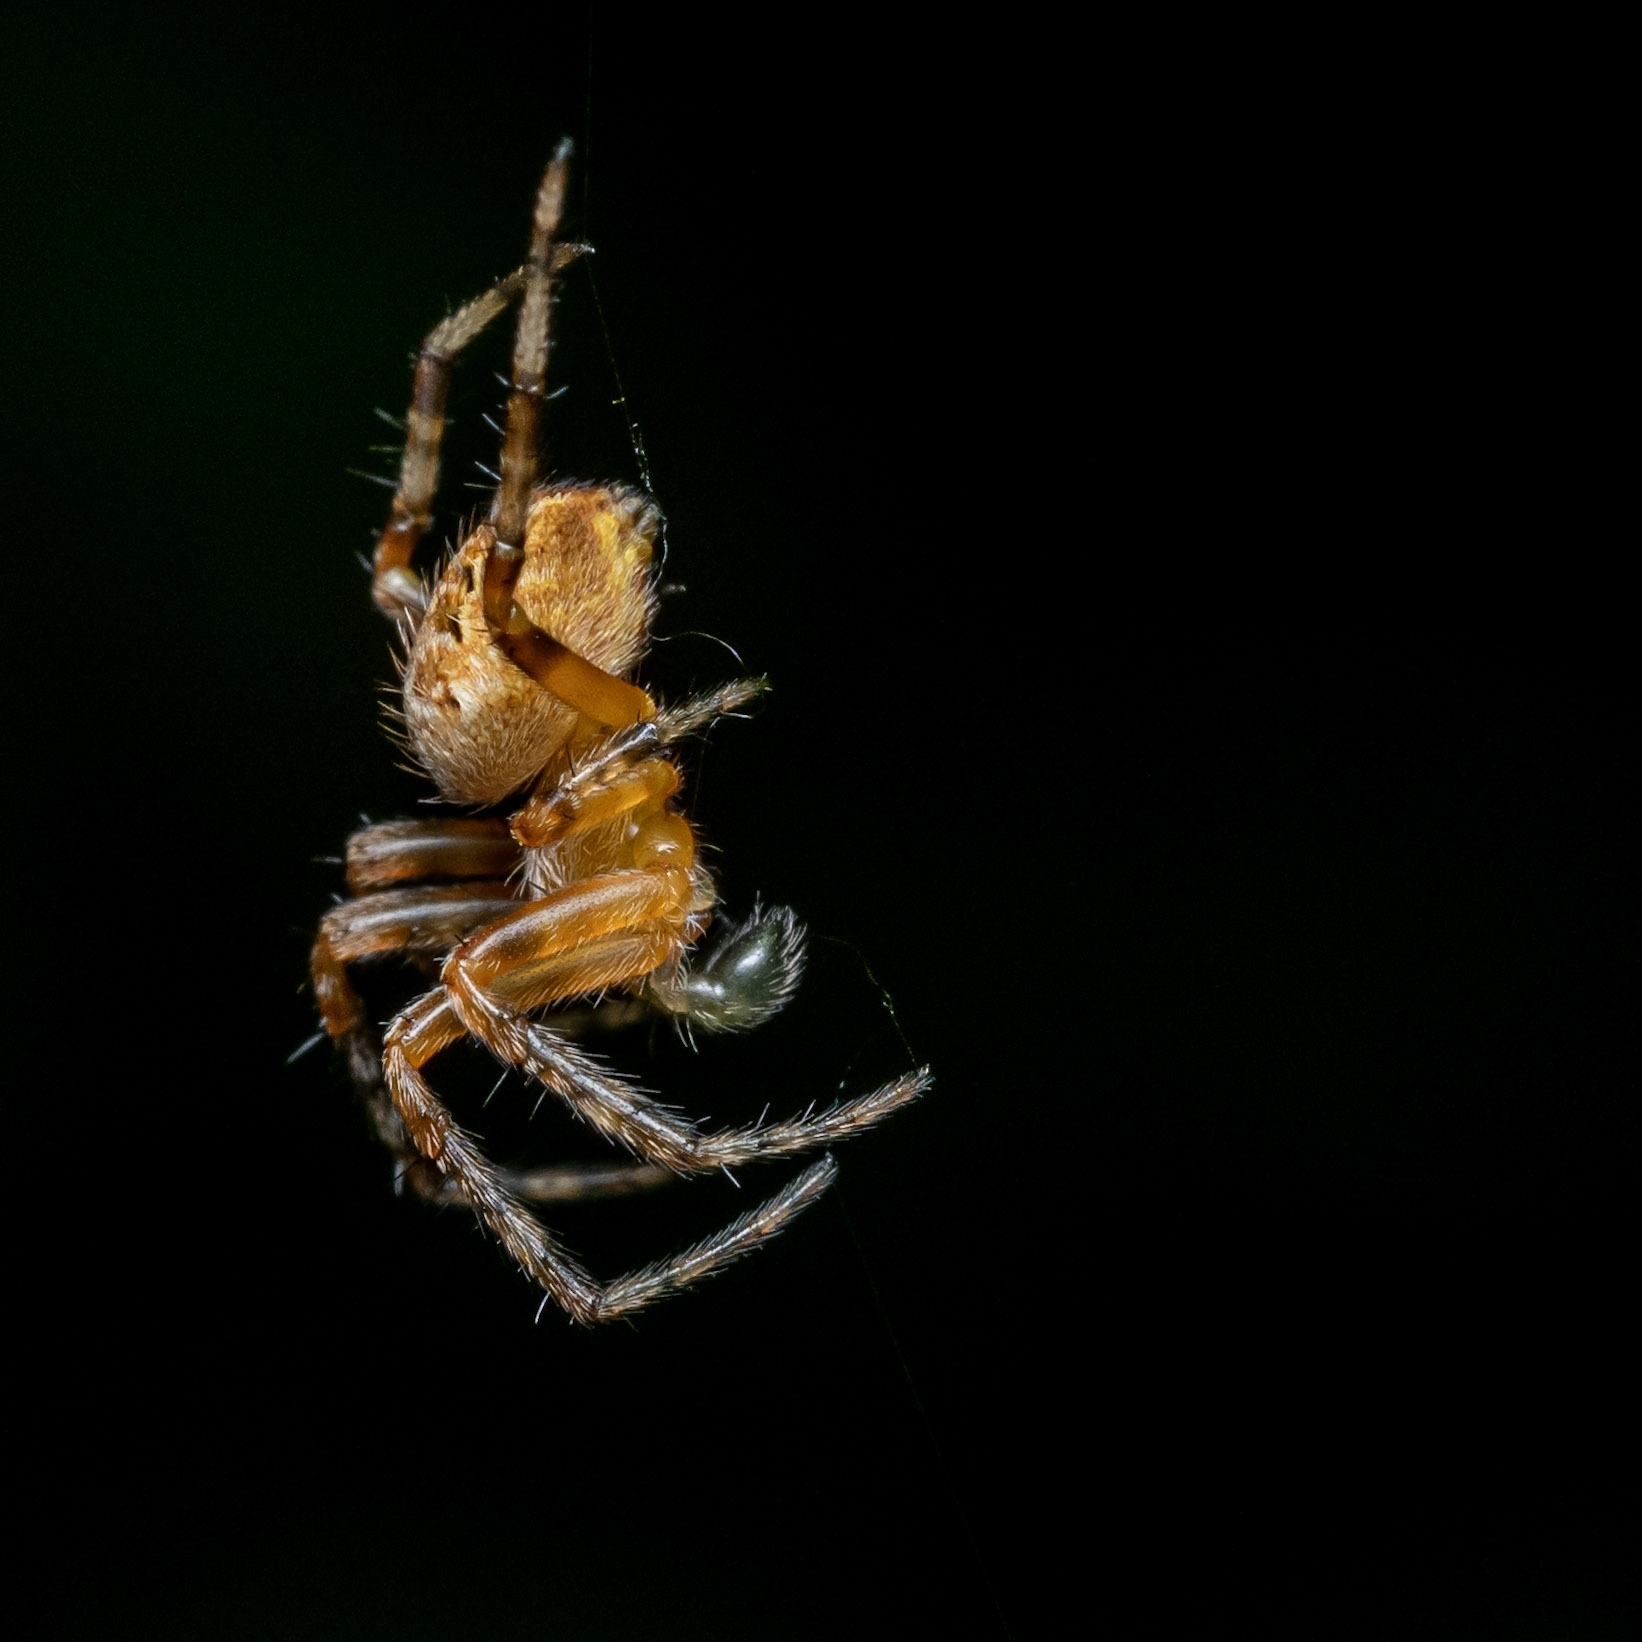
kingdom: Animalia
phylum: Arthropoda
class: Arachnida
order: Araneae
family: Araneidae
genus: Araneus
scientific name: Araneus diadematus
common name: Cross orbweaver
